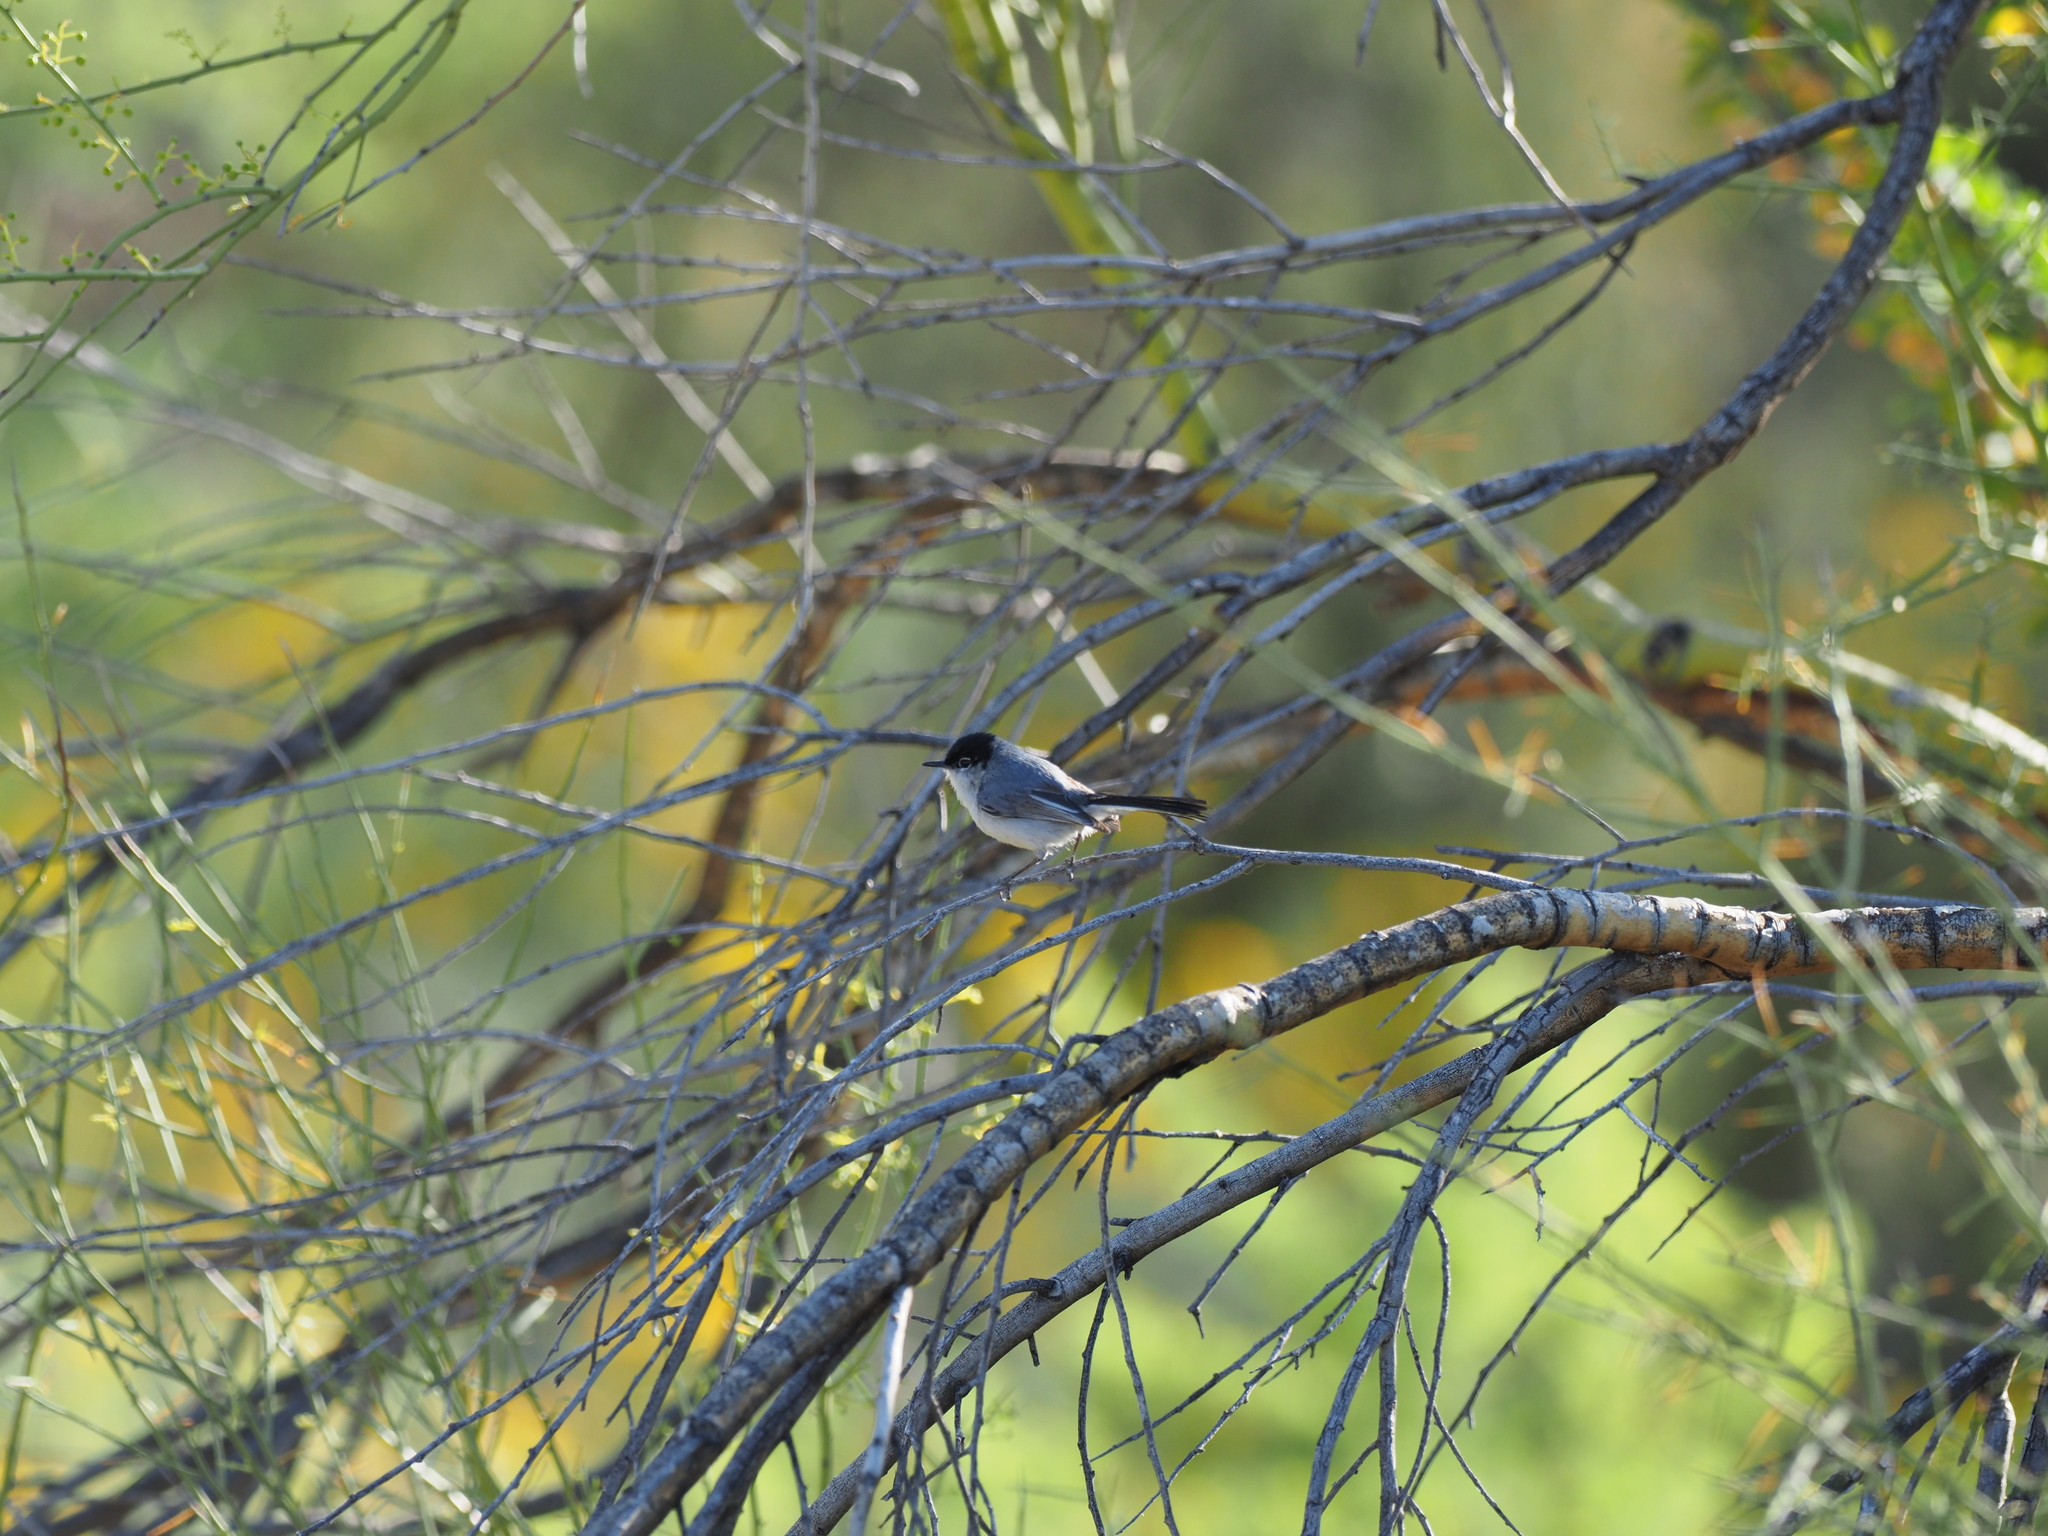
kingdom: Animalia
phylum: Chordata
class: Aves
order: Passeriformes
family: Polioptilidae
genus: Polioptila
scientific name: Polioptila melanura
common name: Black-tailed gnatcatcher
